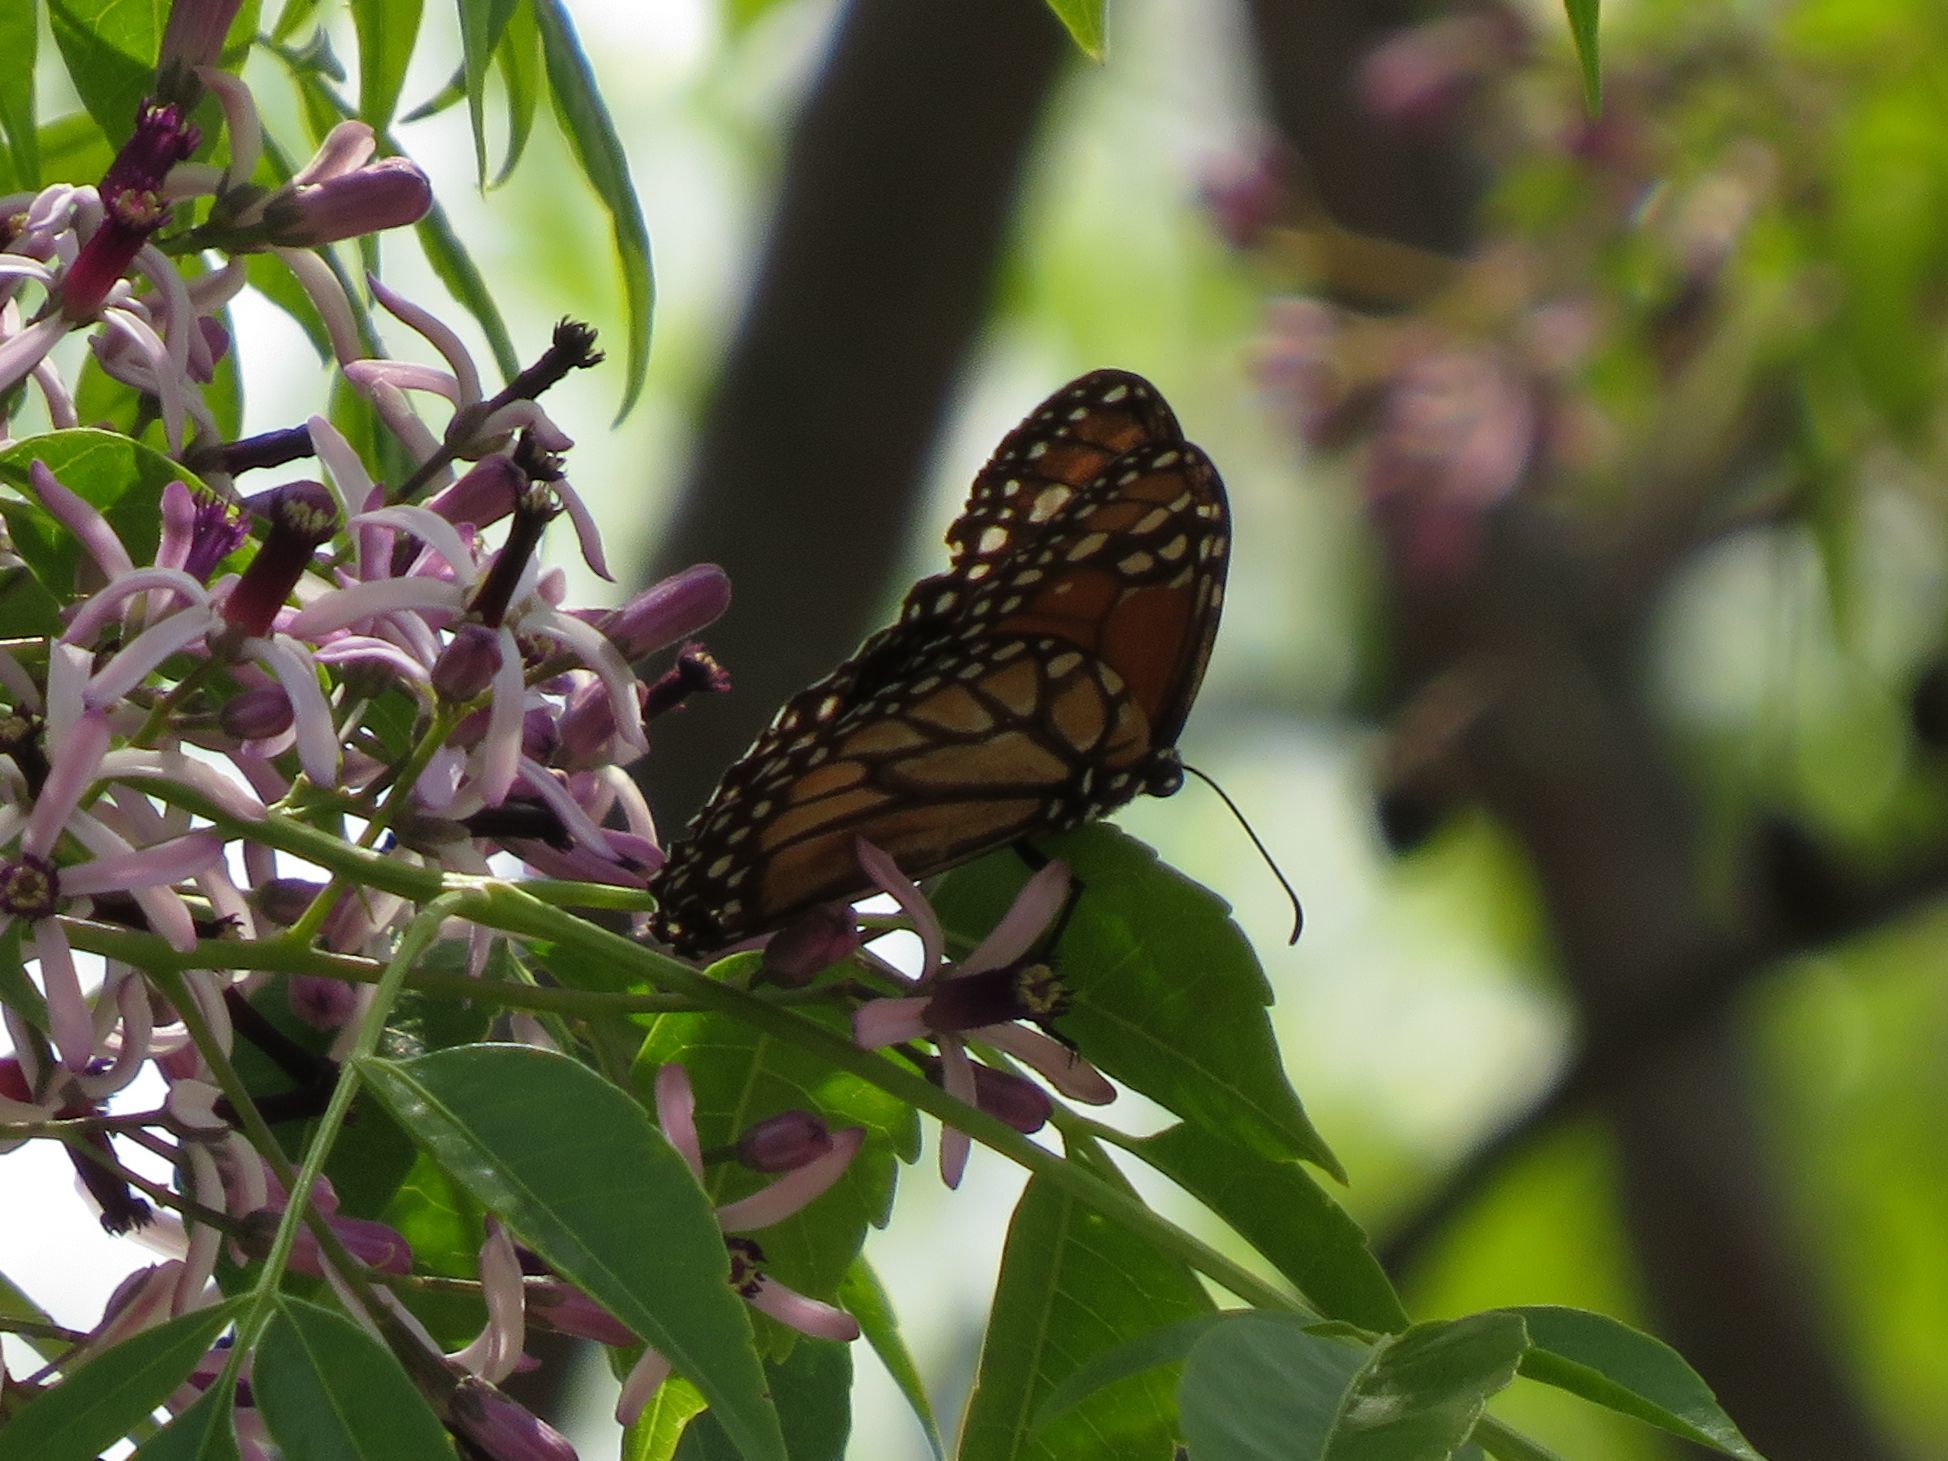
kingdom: Animalia
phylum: Arthropoda
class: Insecta
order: Lepidoptera
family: Nymphalidae
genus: Danaus
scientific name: Danaus erippus
